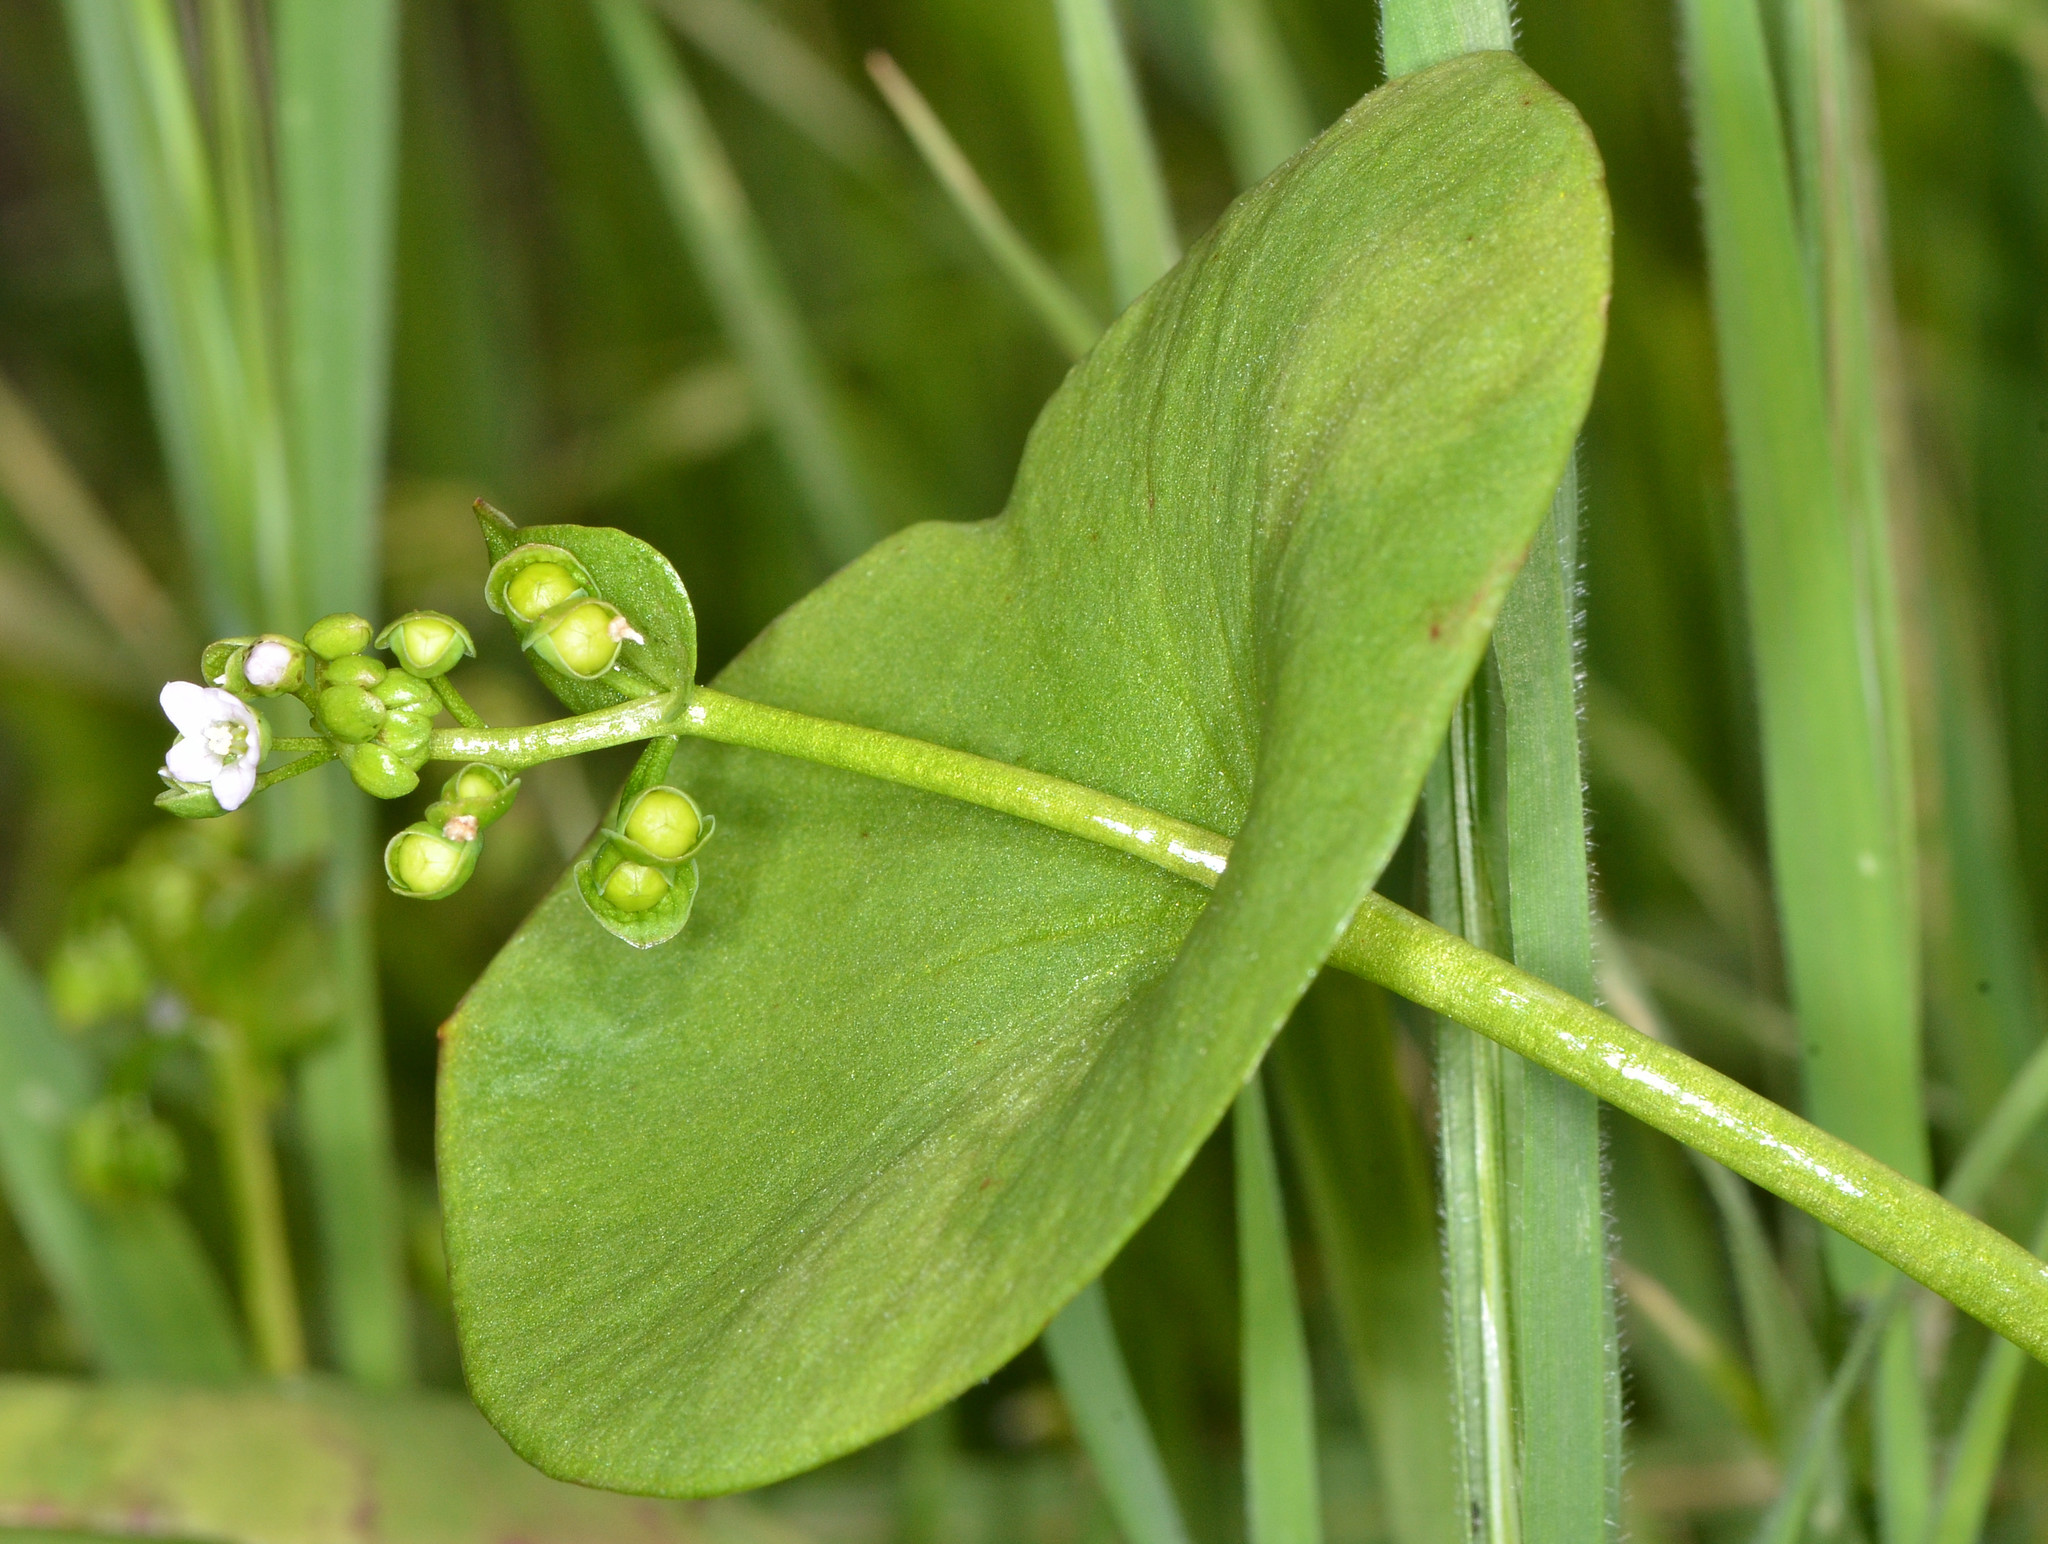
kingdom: Plantae
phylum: Tracheophyta
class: Magnoliopsida
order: Caryophyllales
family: Montiaceae
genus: Claytonia
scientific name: Claytonia perfoliata
